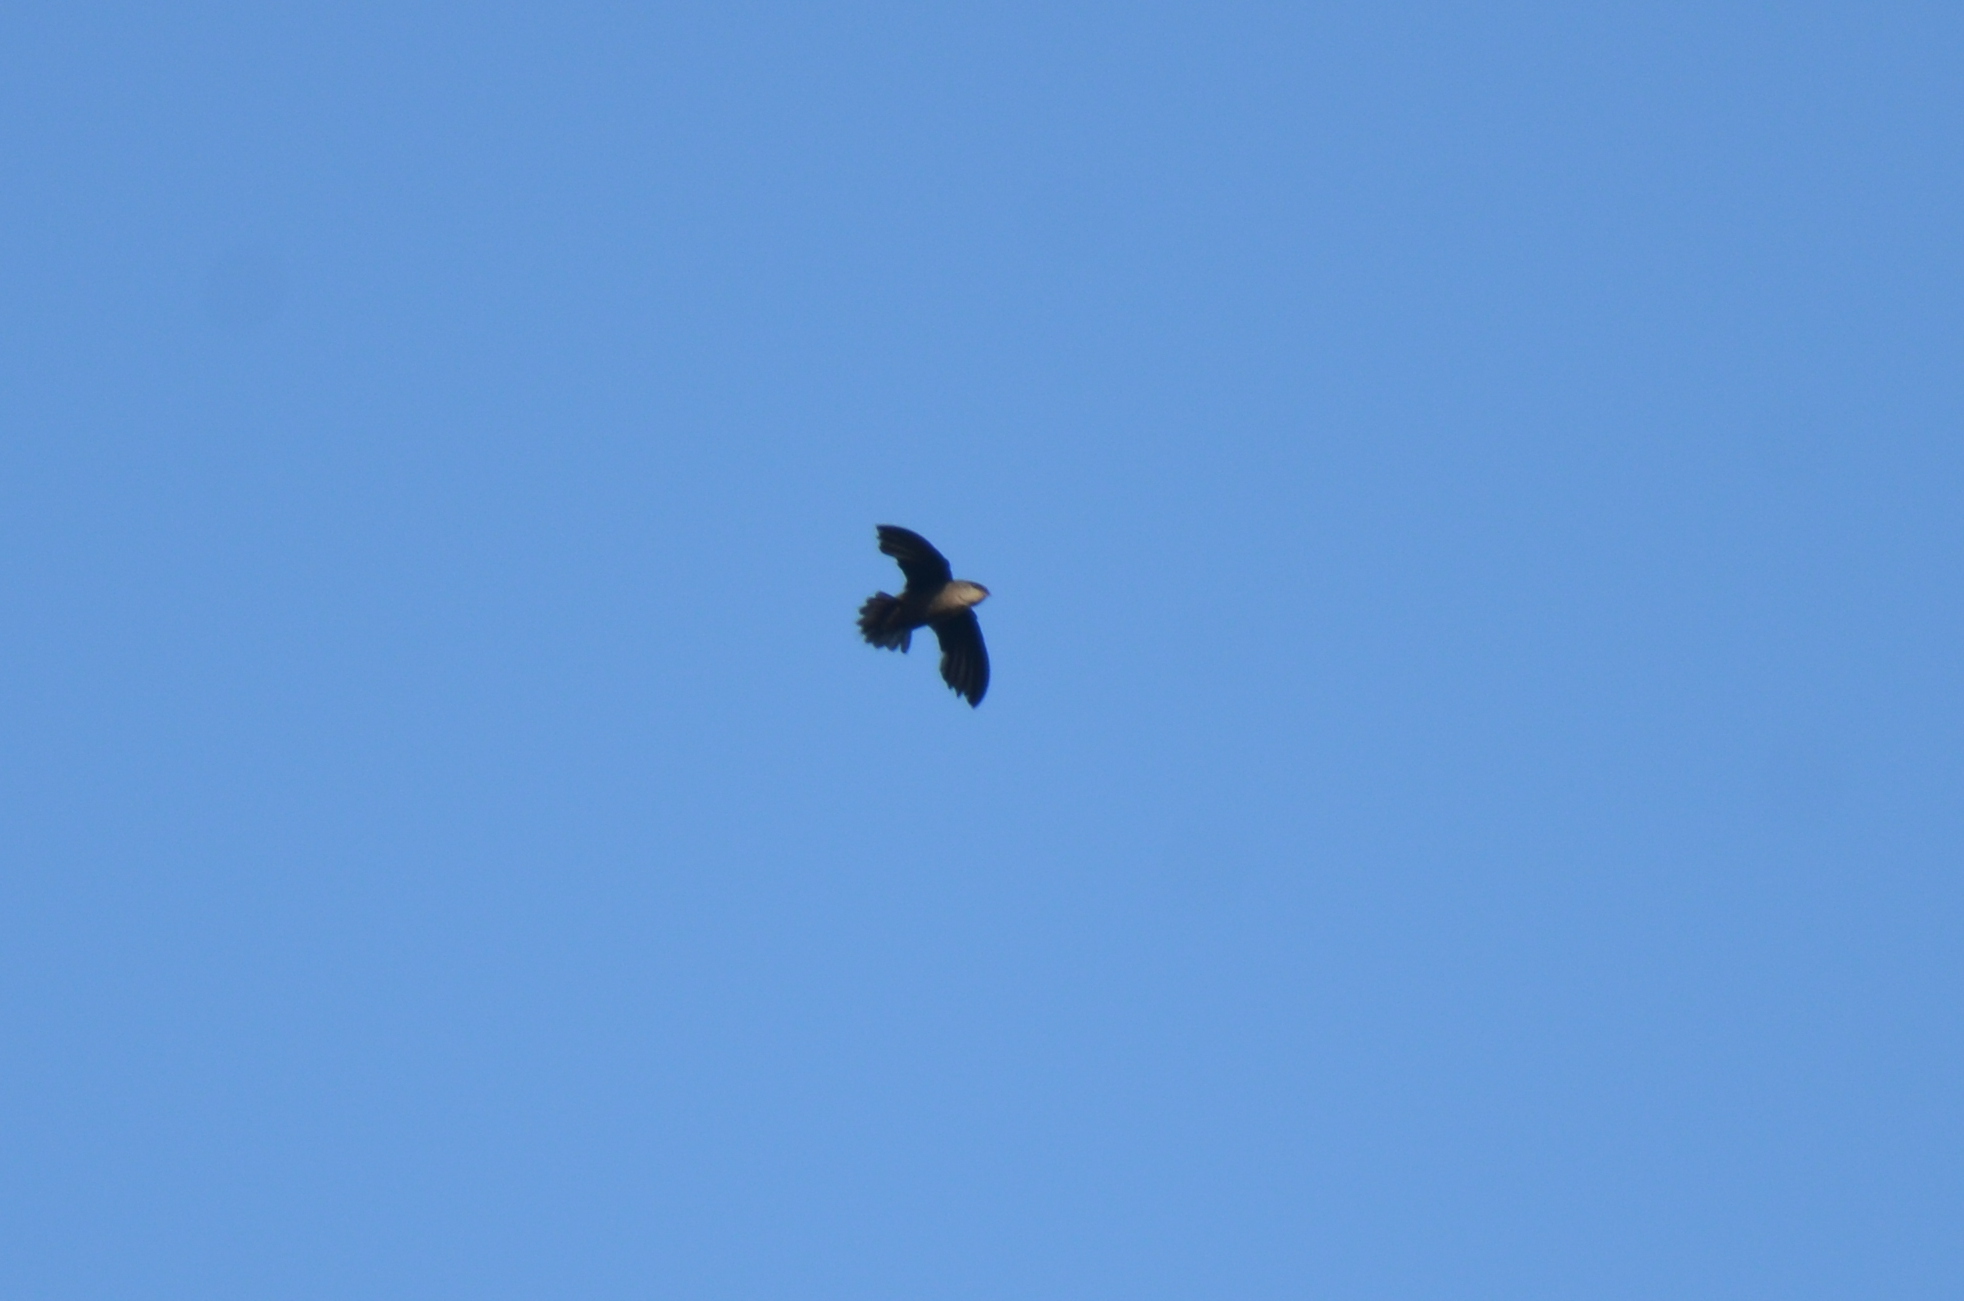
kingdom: Animalia
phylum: Chordata
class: Aves
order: Apodiformes
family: Apodidae
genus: Chaetura
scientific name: Chaetura pelagica
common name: Chimney swift
